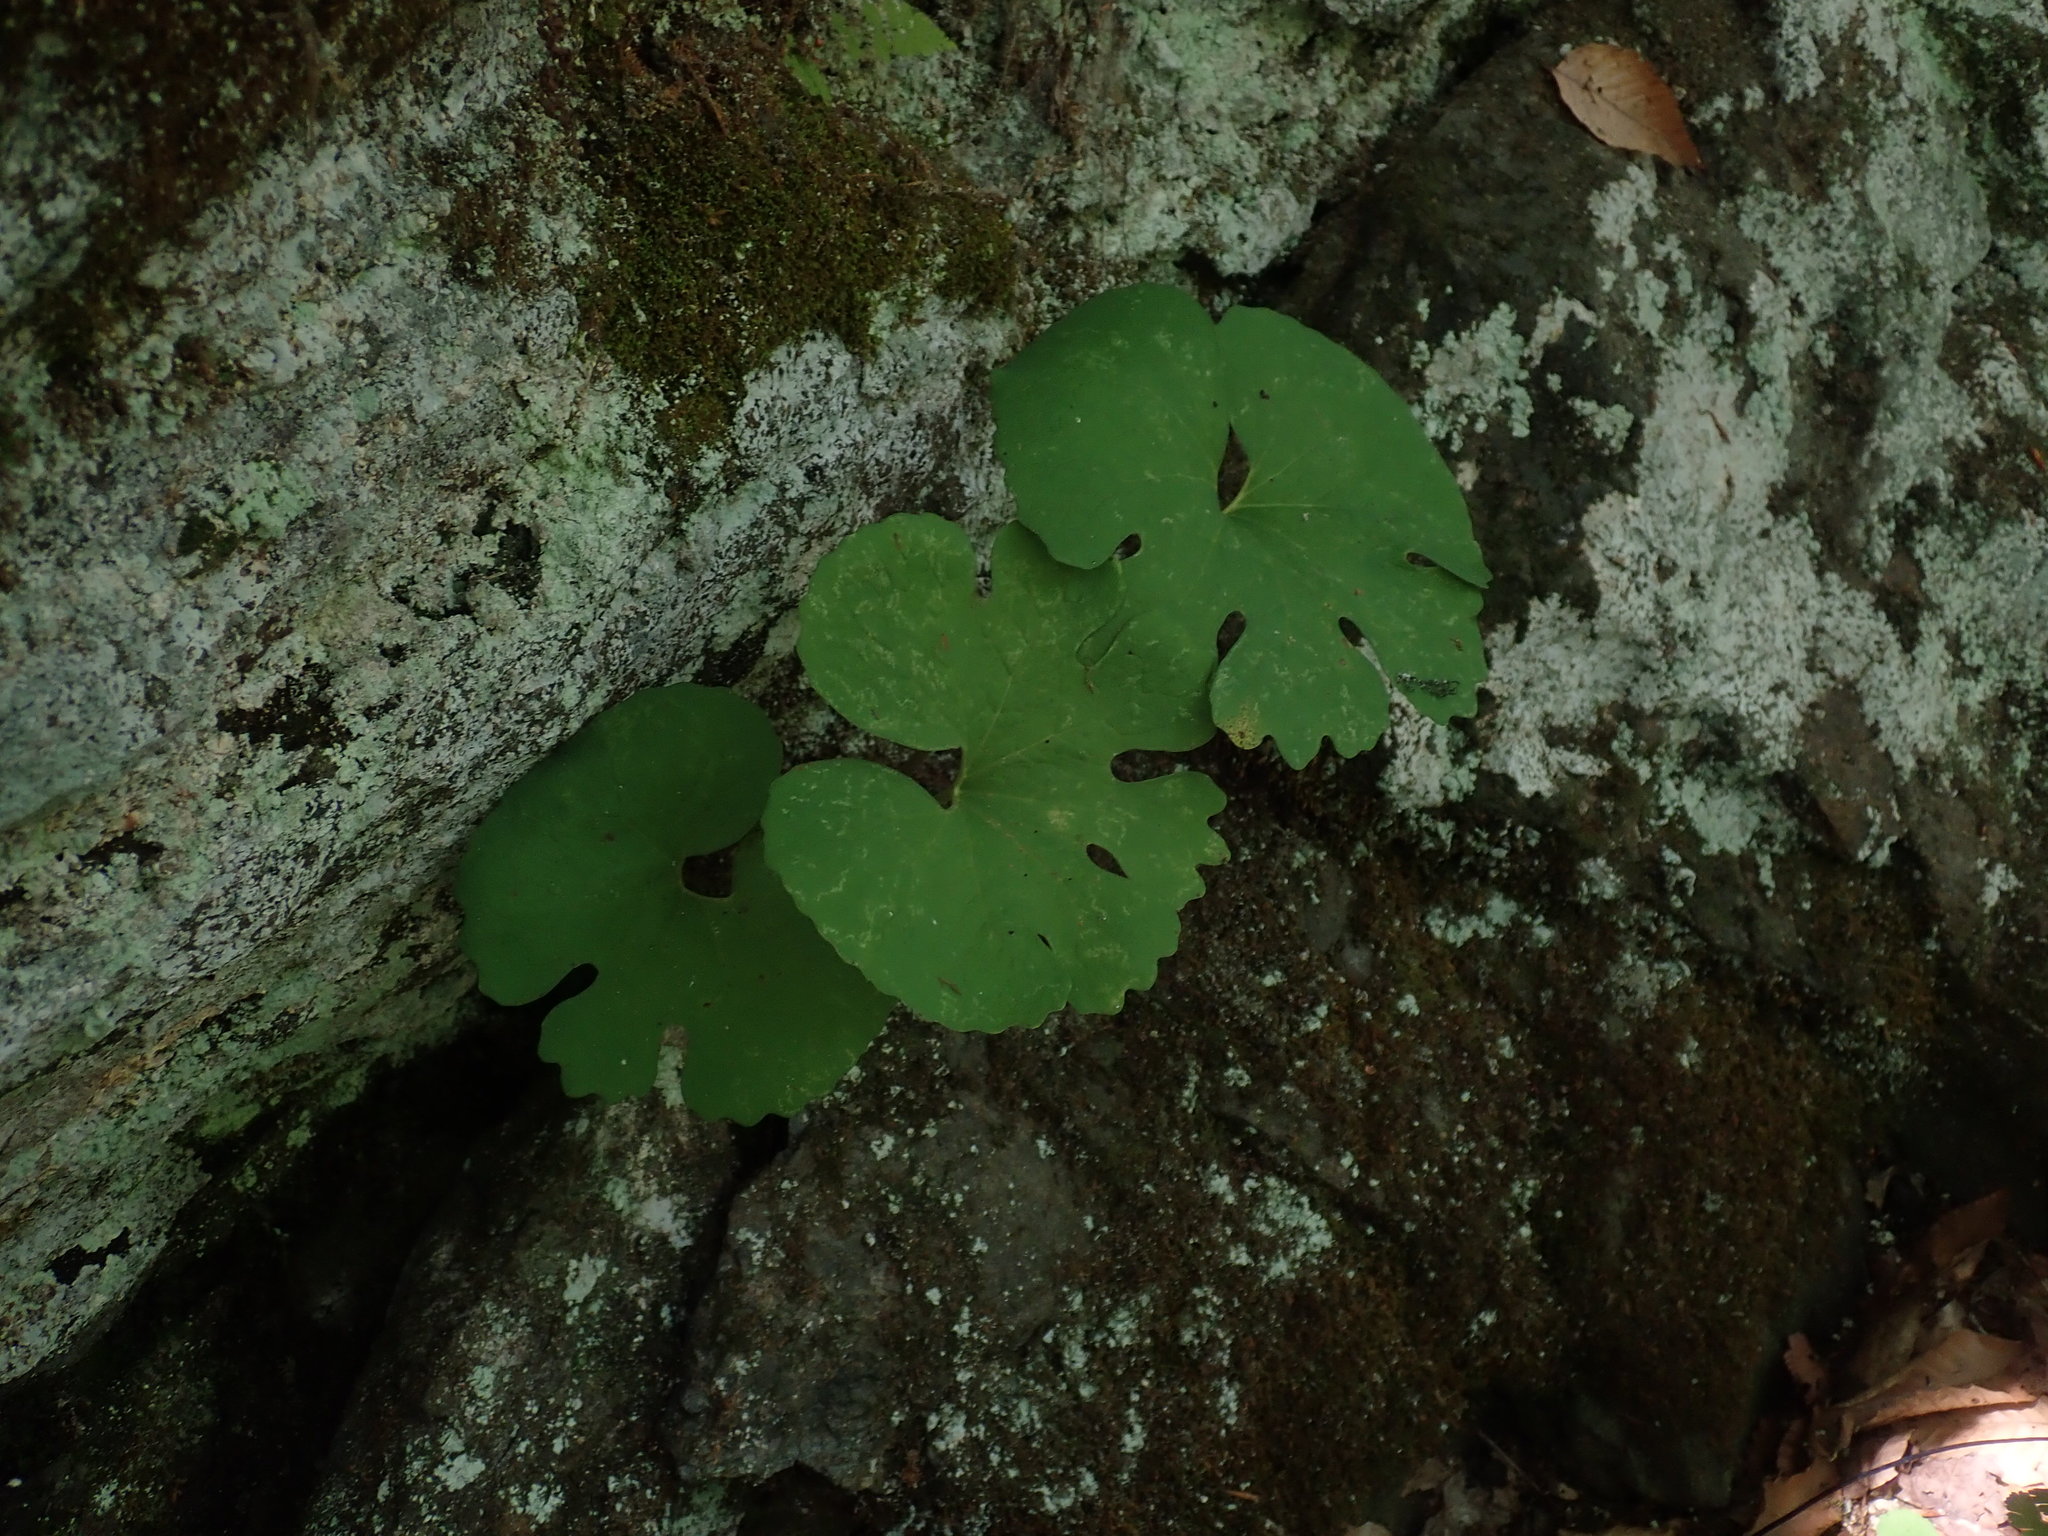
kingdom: Plantae
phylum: Tracheophyta
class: Magnoliopsida
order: Ranunculales
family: Papaveraceae
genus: Sanguinaria
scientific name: Sanguinaria canadensis
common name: Bloodroot
